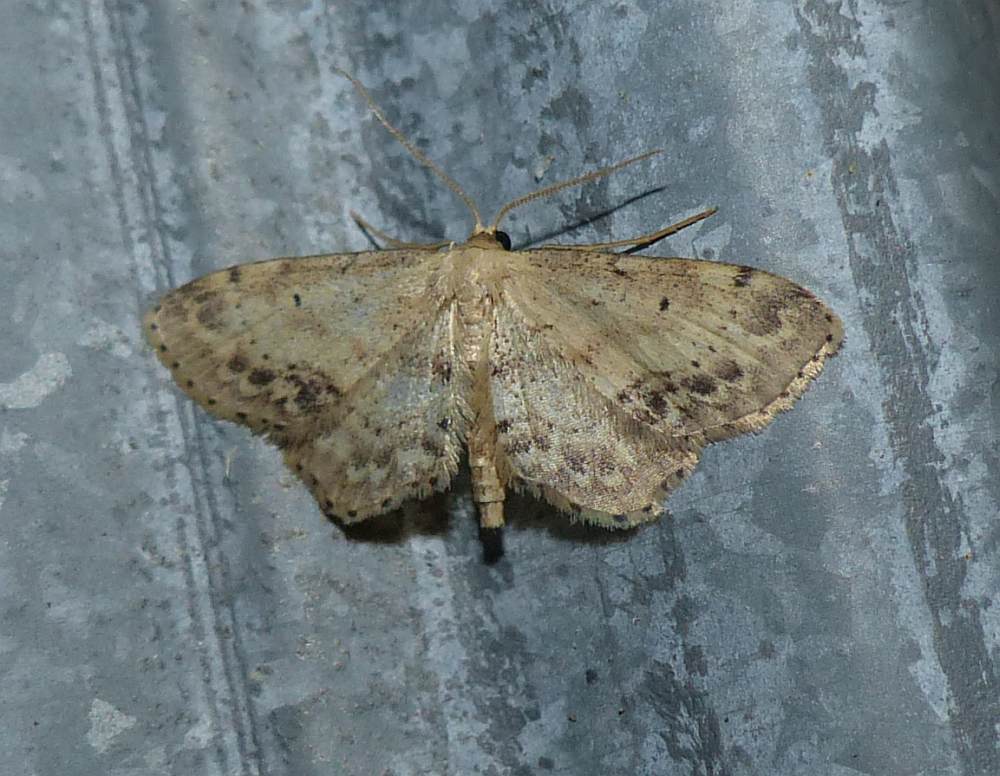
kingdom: Animalia
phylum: Arthropoda
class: Insecta
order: Lepidoptera
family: Geometridae
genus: Idaea
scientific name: Idaea dimidiata
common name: Single-dotted wave
